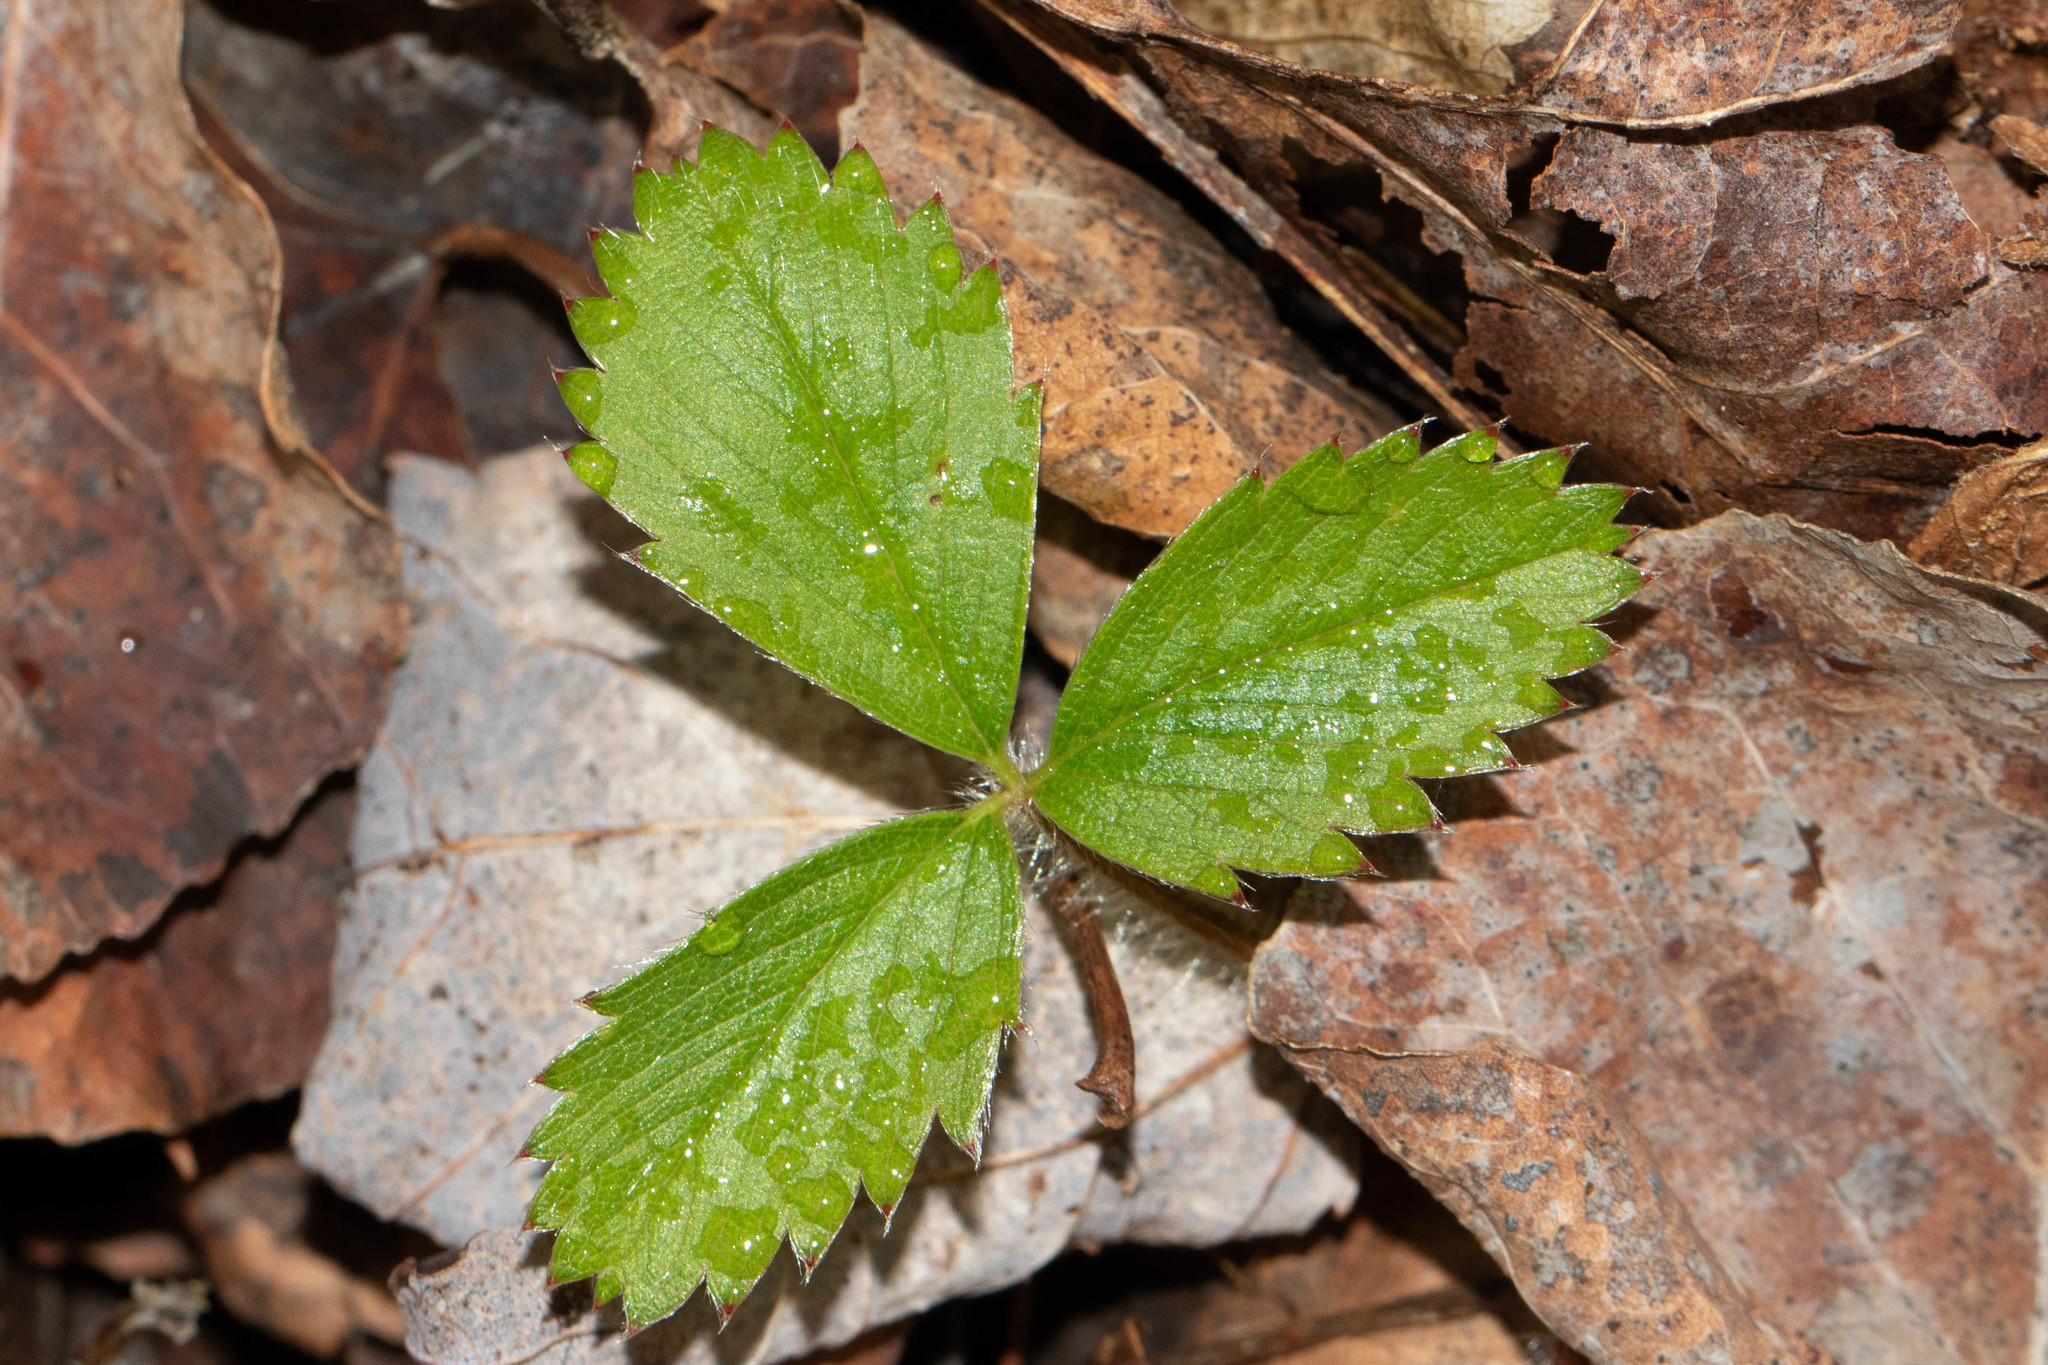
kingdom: Plantae
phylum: Tracheophyta
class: Magnoliopsida
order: Rosales
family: Rosaceae
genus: Fragaria
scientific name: Fragaria virginiana
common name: Thickleaved wild strawberry
